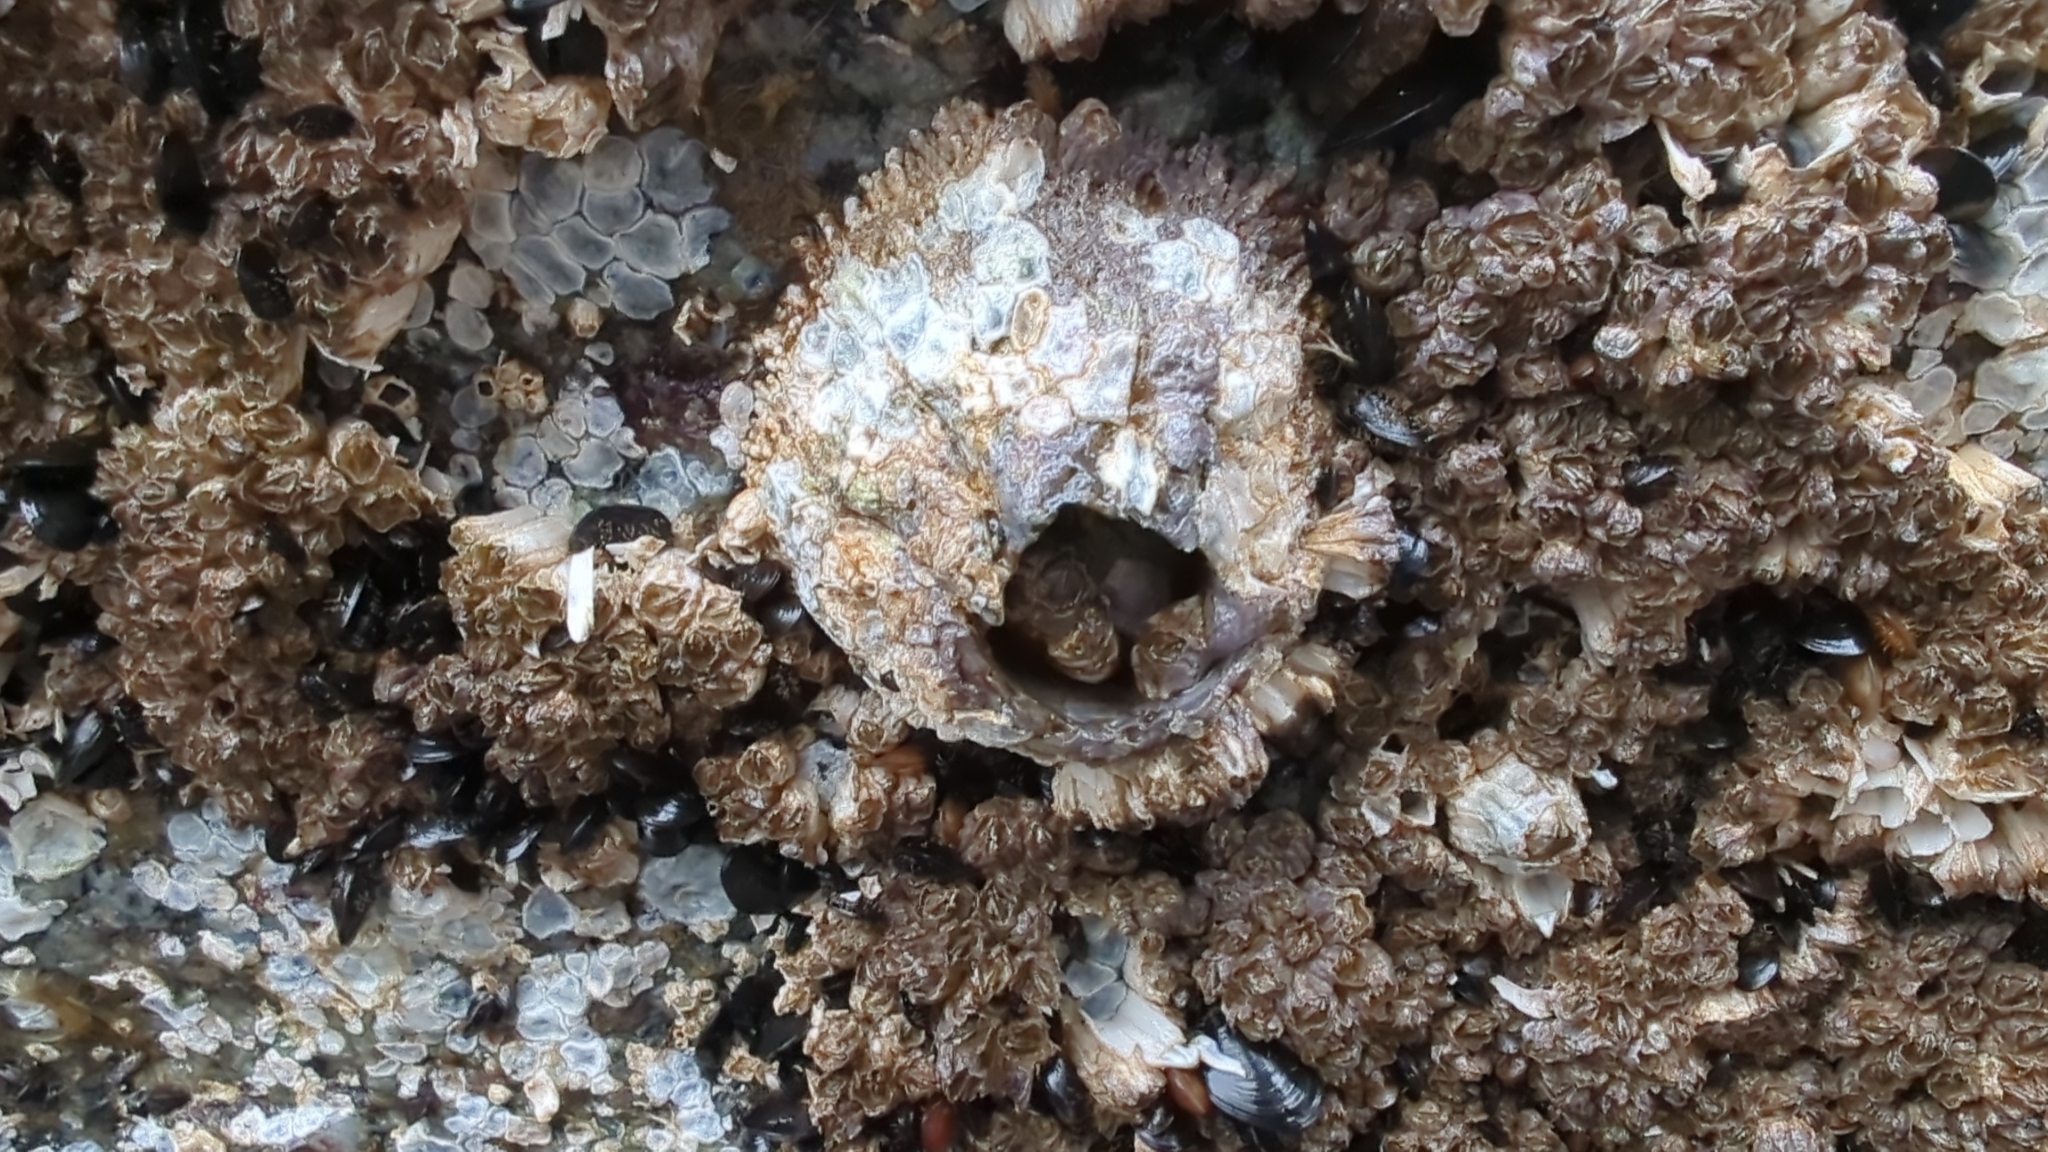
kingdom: Animalia
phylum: Arthropoda
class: Maxillopoda
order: Sessilia
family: Archaeobalanidae
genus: Semibalanus
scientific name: Semibalanus cariosus
